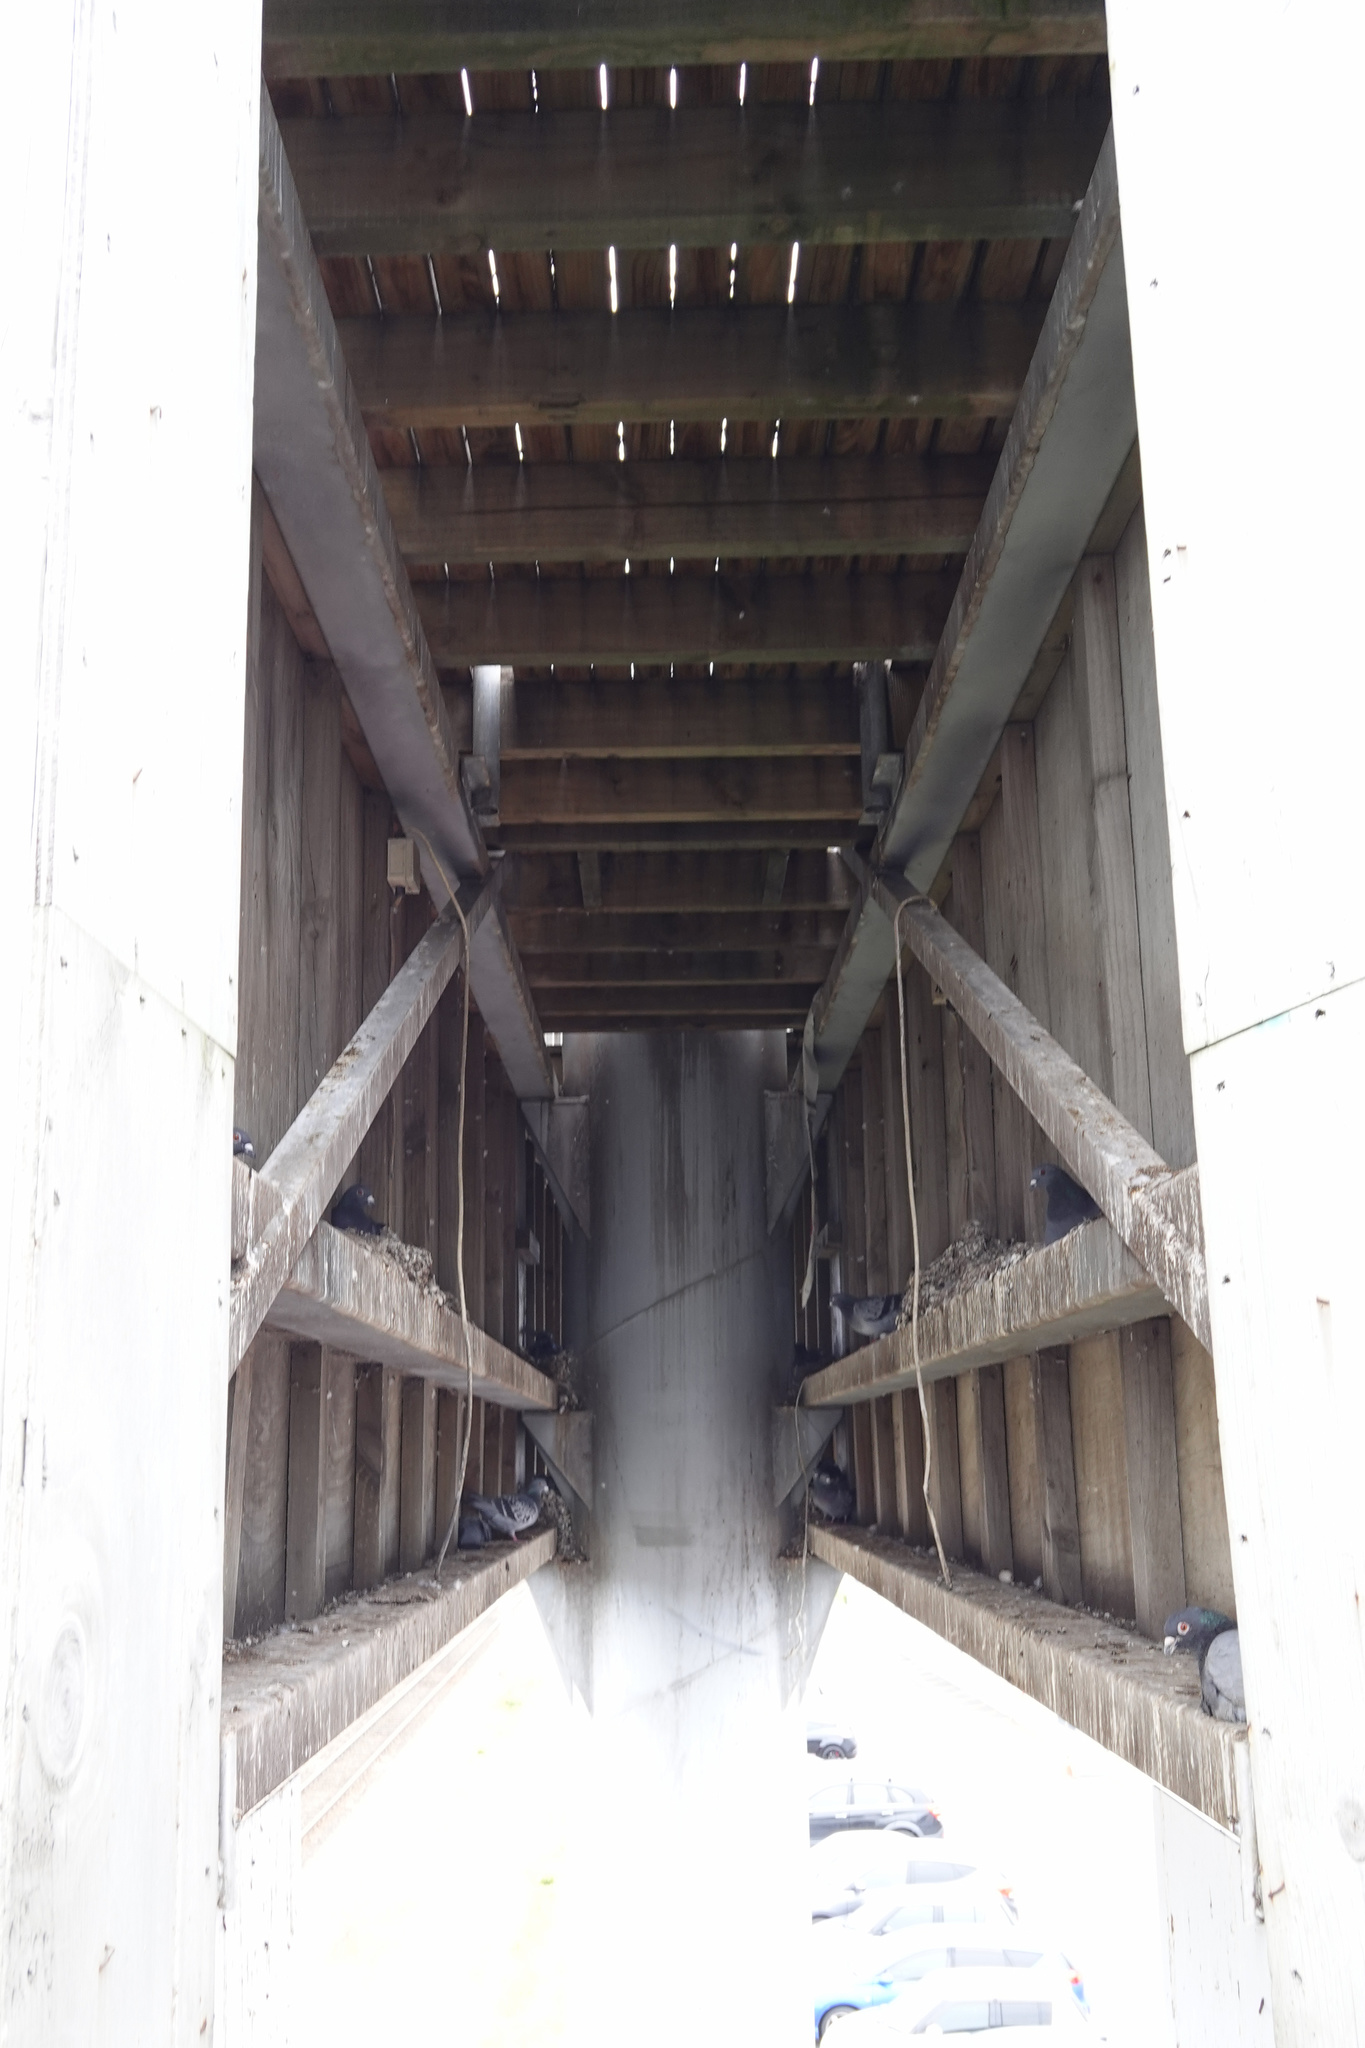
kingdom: Animalia
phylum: Chordata
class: Aves
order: Columbiformes
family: Columbidae
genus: Columba
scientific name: Columba livia
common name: Rock pigeon
